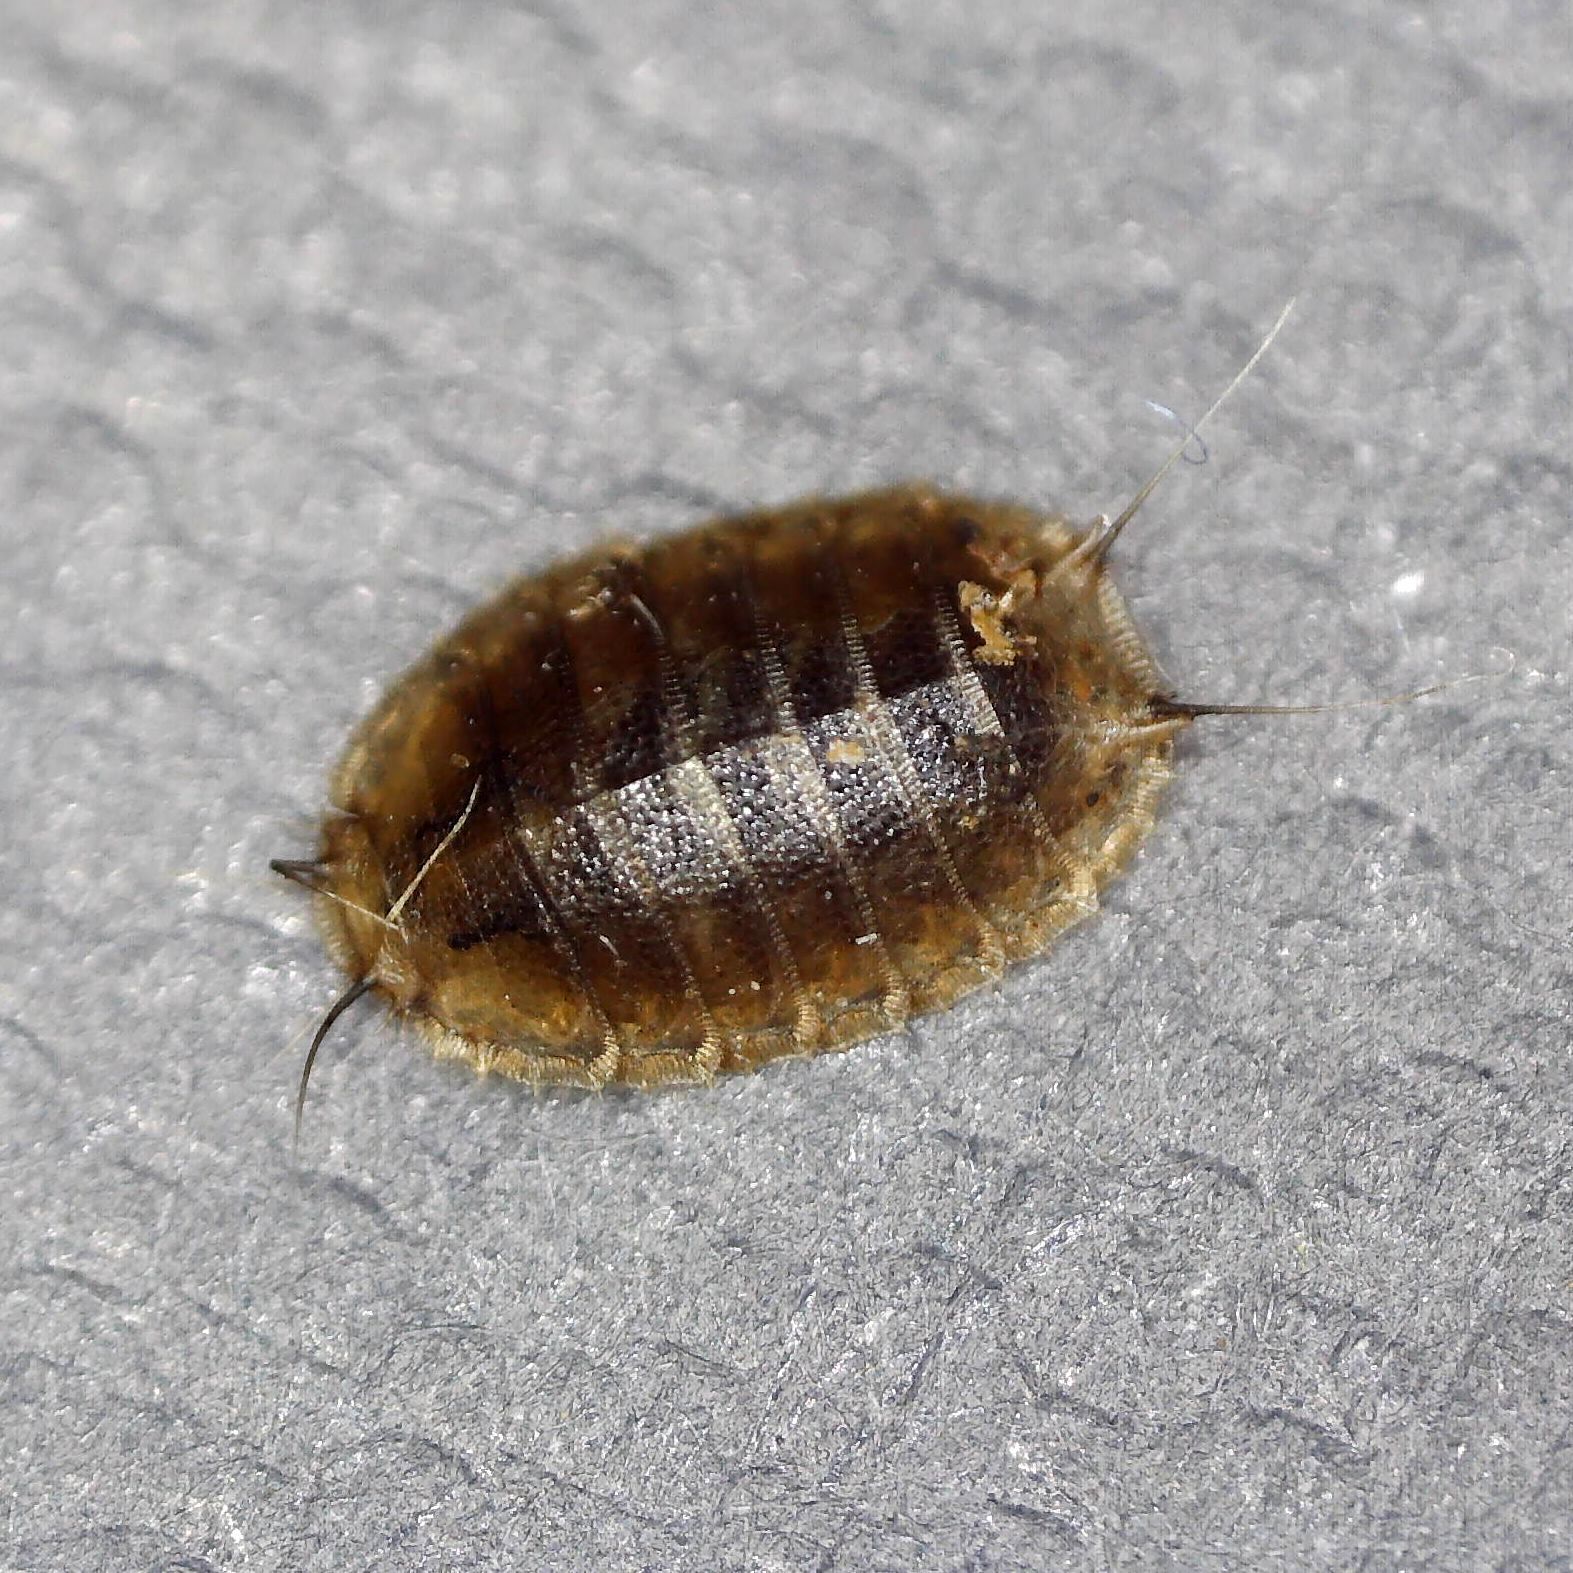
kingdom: Animalia
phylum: Arthropoda
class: Insecta
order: Diptera
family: Lonchopteridae
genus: Lonchoptera
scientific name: Lonchoptera
